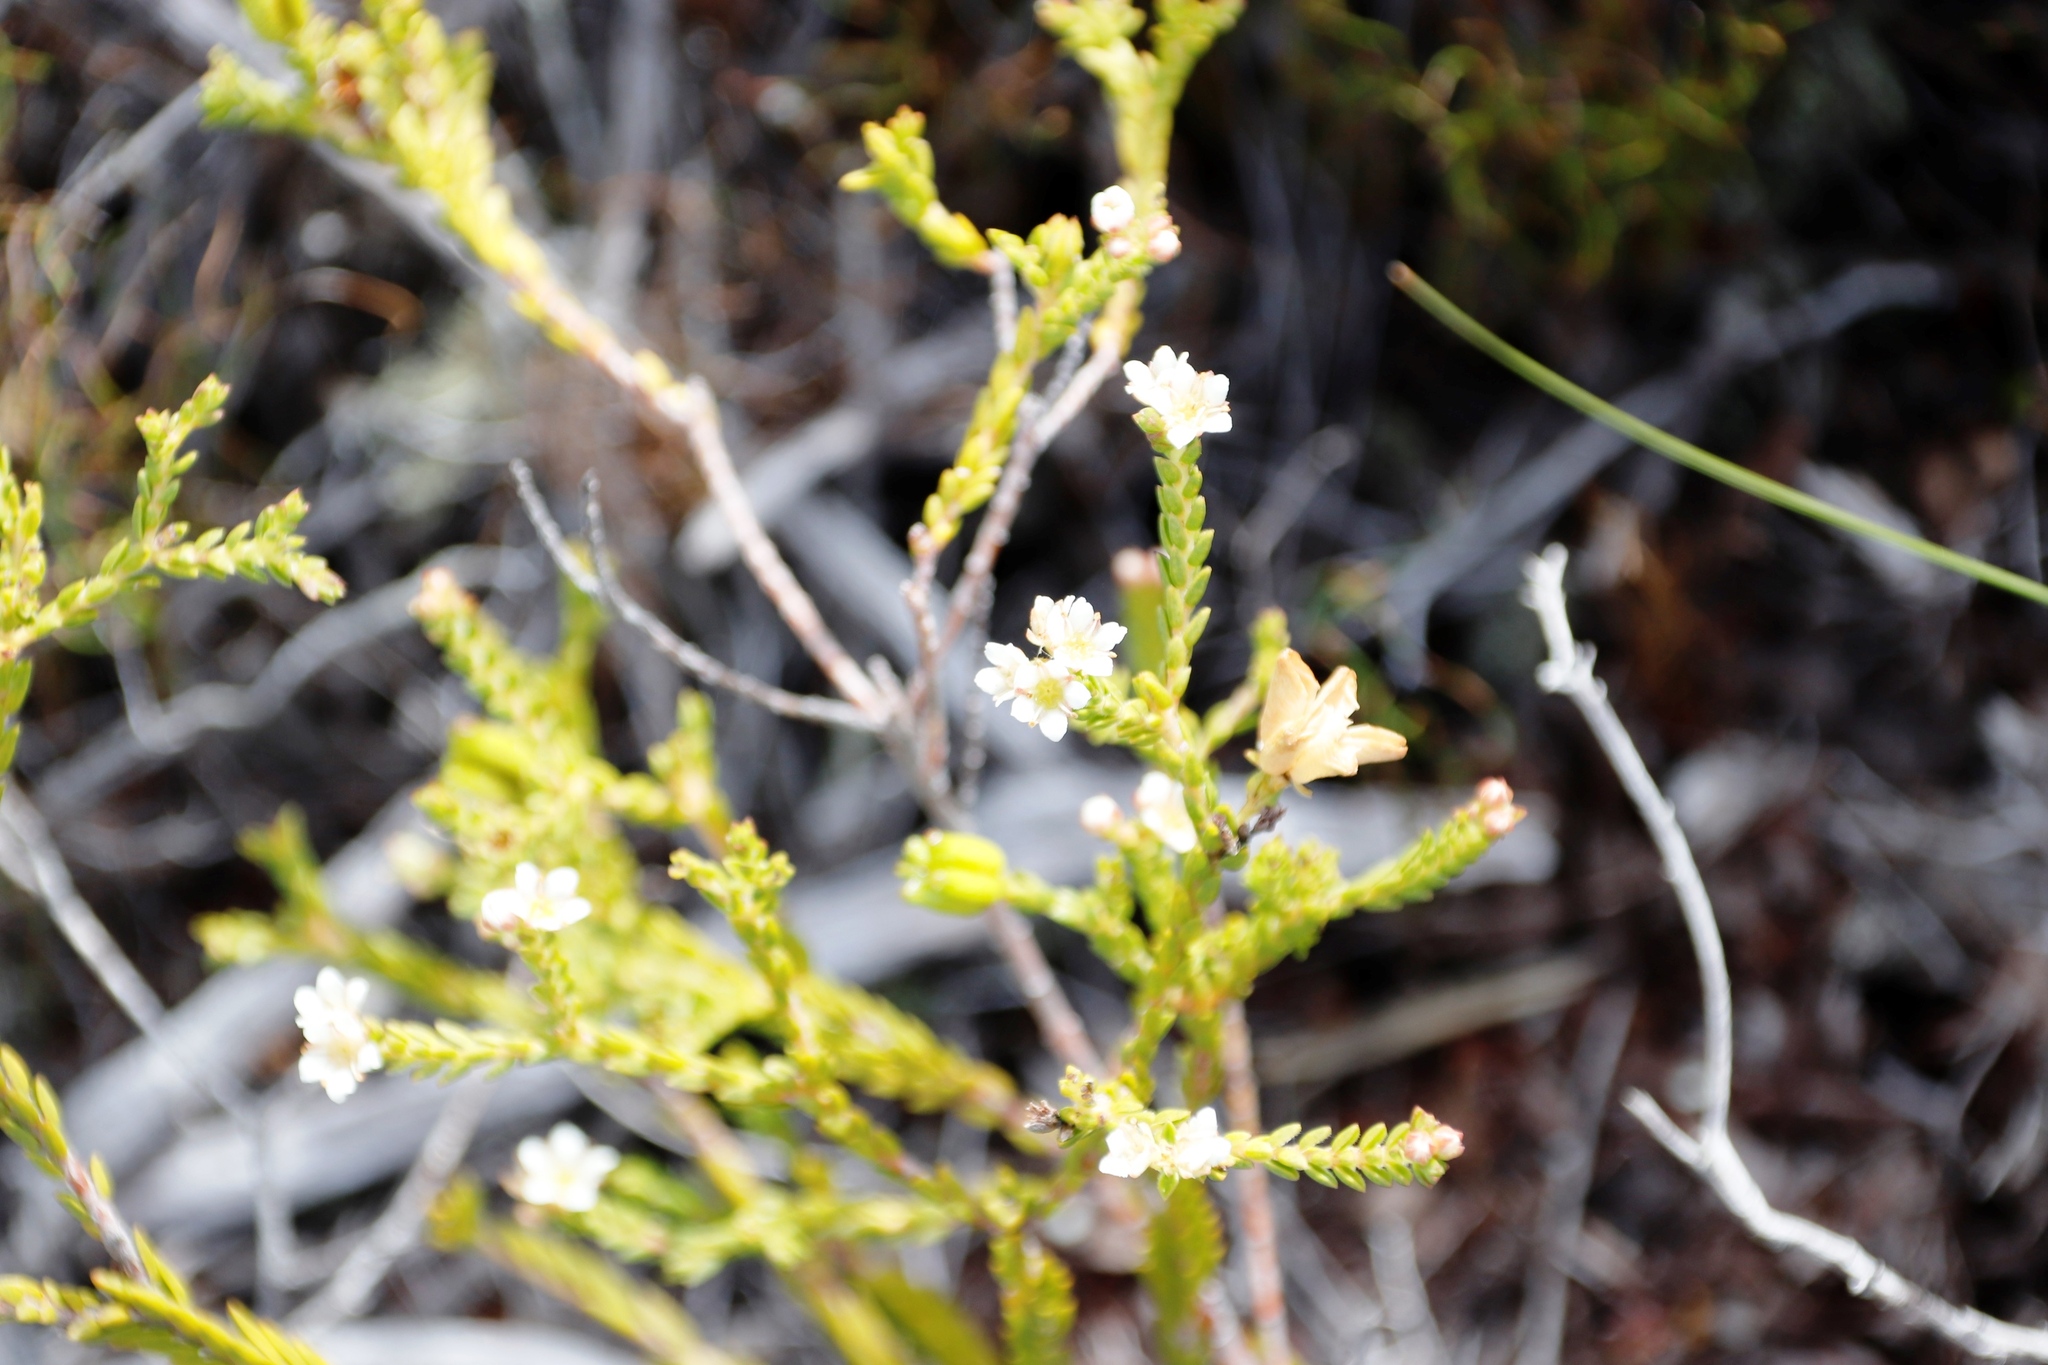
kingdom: Plantae
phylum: Tracheophyta
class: Magnoliopsida
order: Sapindales
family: Rutaceae
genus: Diosma
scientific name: Diosma oppositifolia
